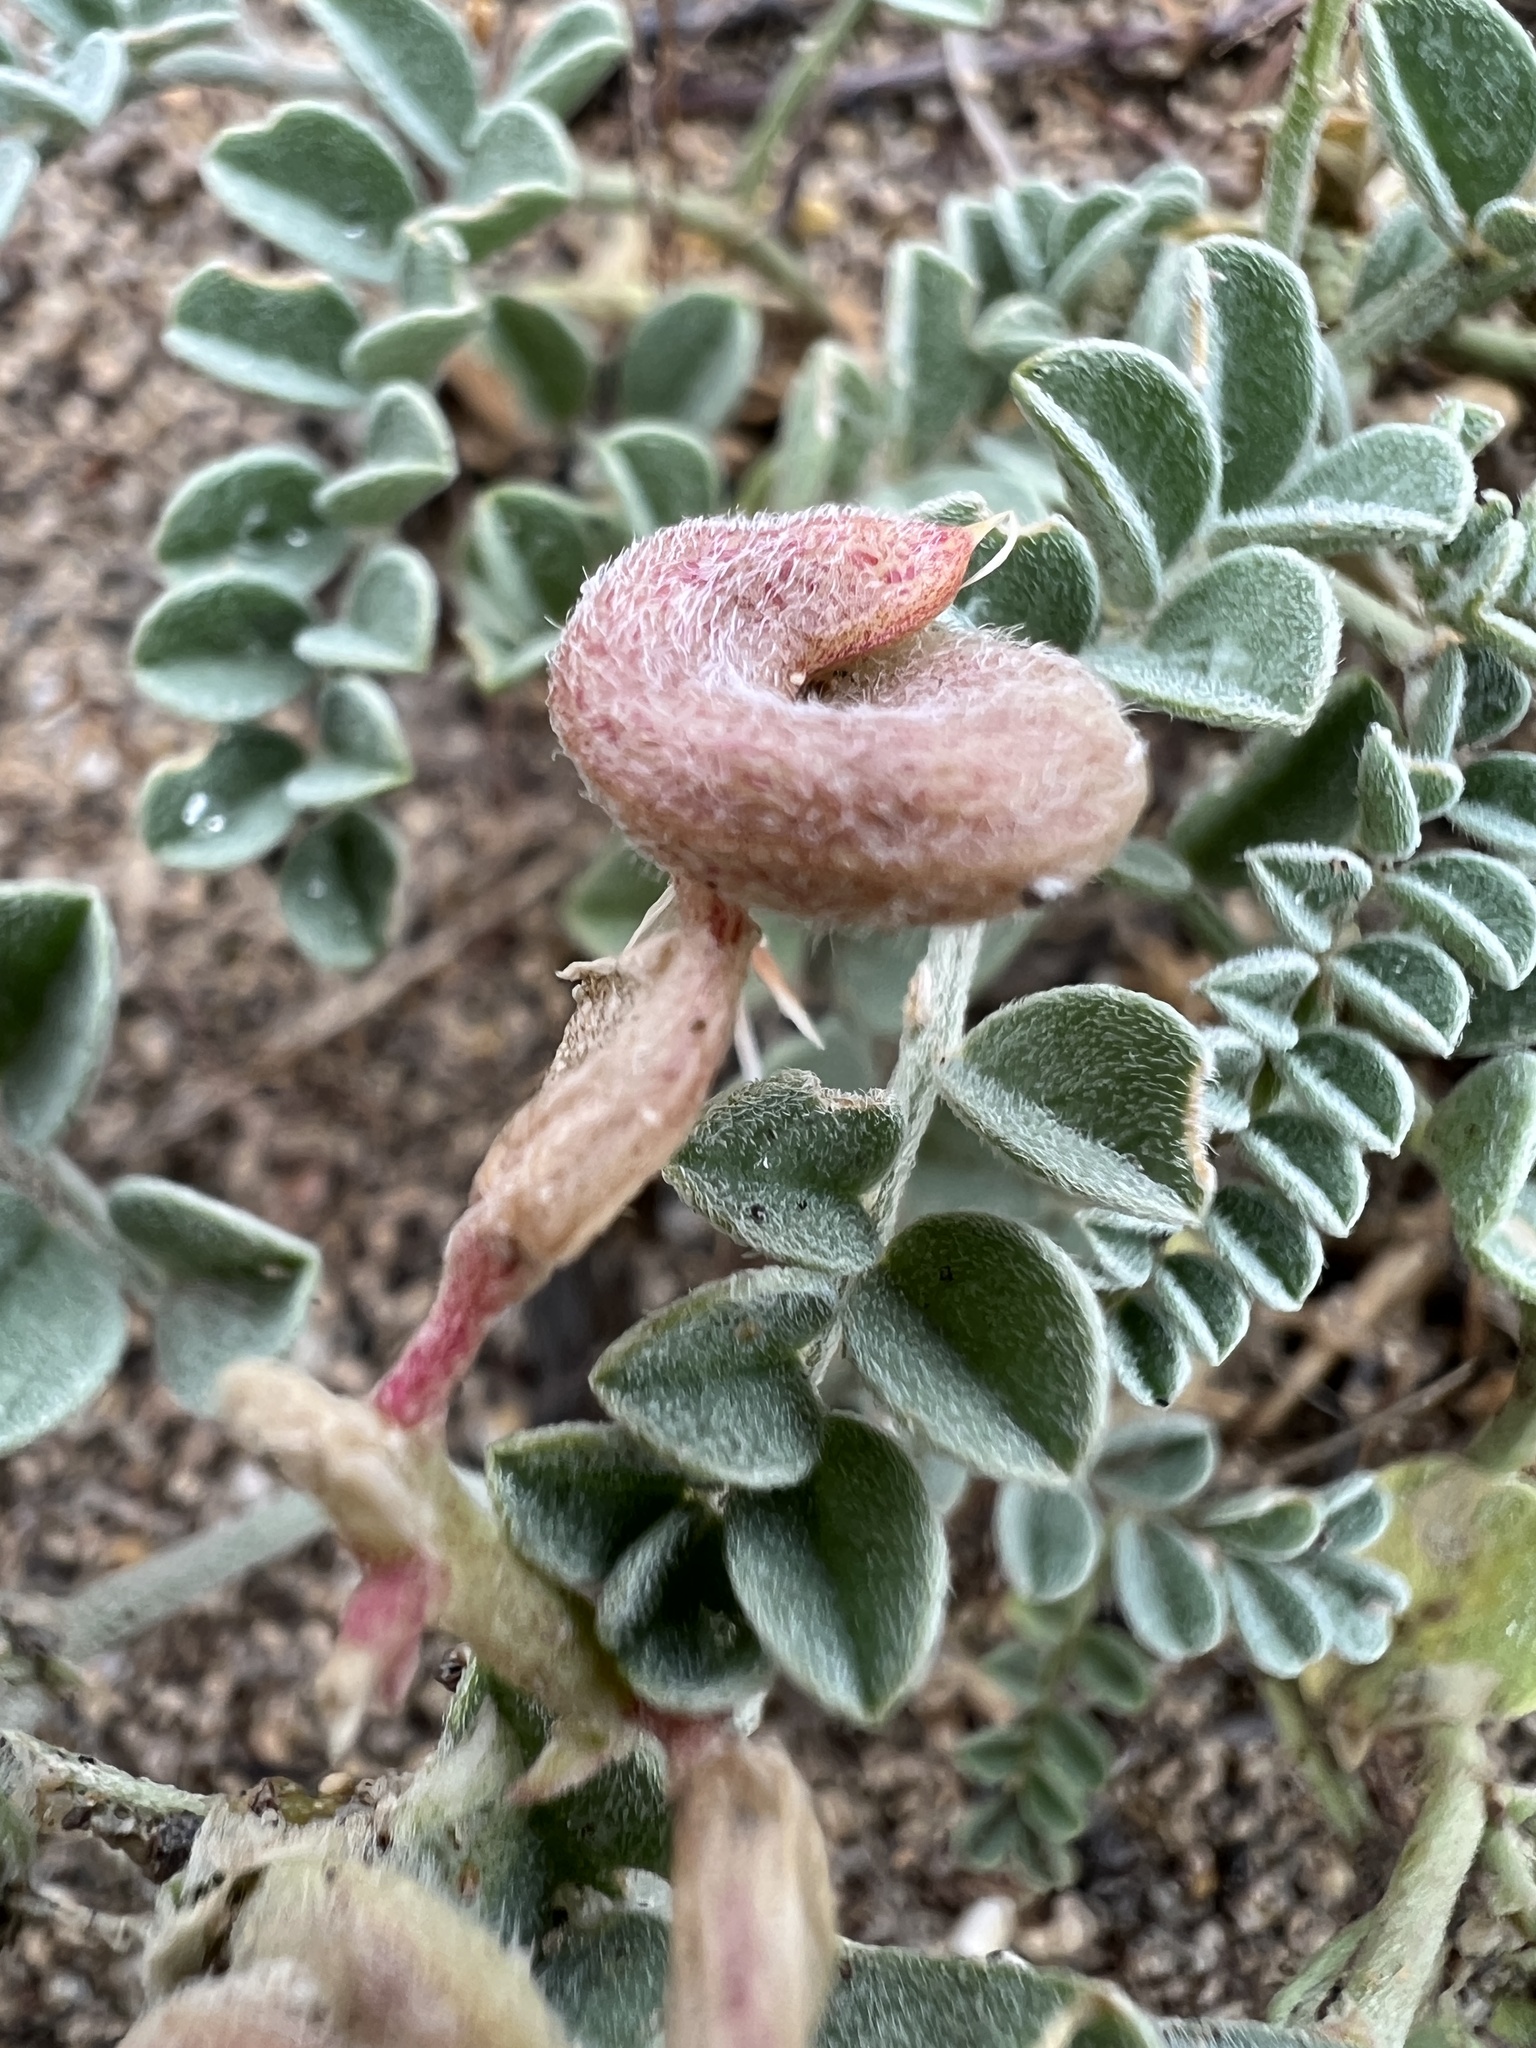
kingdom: Plantae
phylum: Tracheophyta
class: Magnoliopsida
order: Fabales
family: Fabaceae
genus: Astragalus
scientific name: Astragalus camptopus
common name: Bruneau milk-vetch
